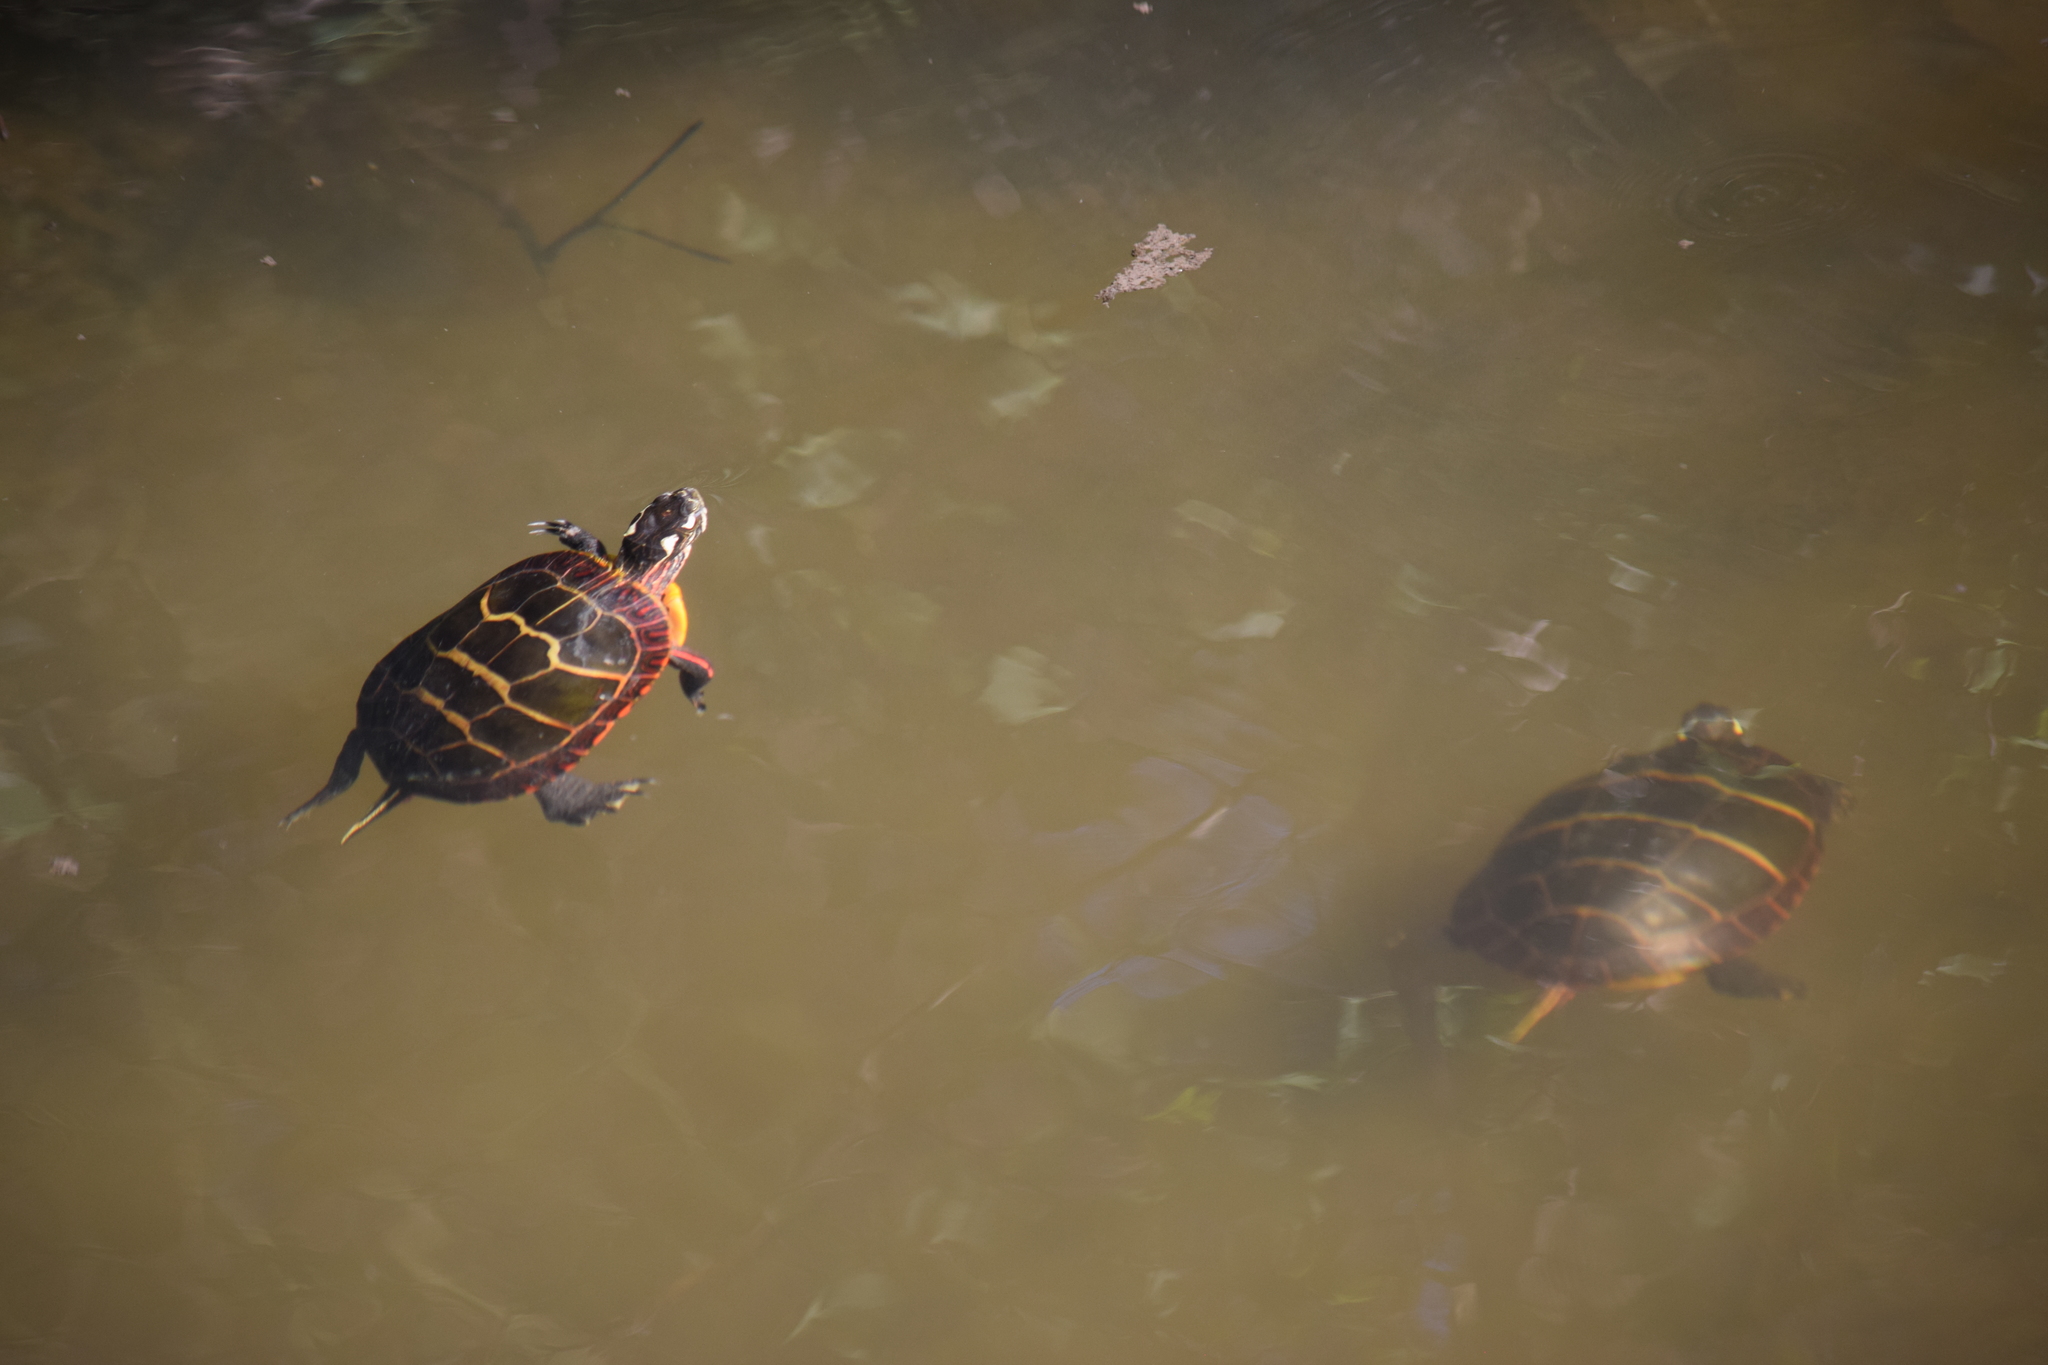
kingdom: Animalia
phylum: Chordata
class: Testudines
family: Emydidae
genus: Chrysemys
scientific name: Chrysemys picta
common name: Painted turtle
